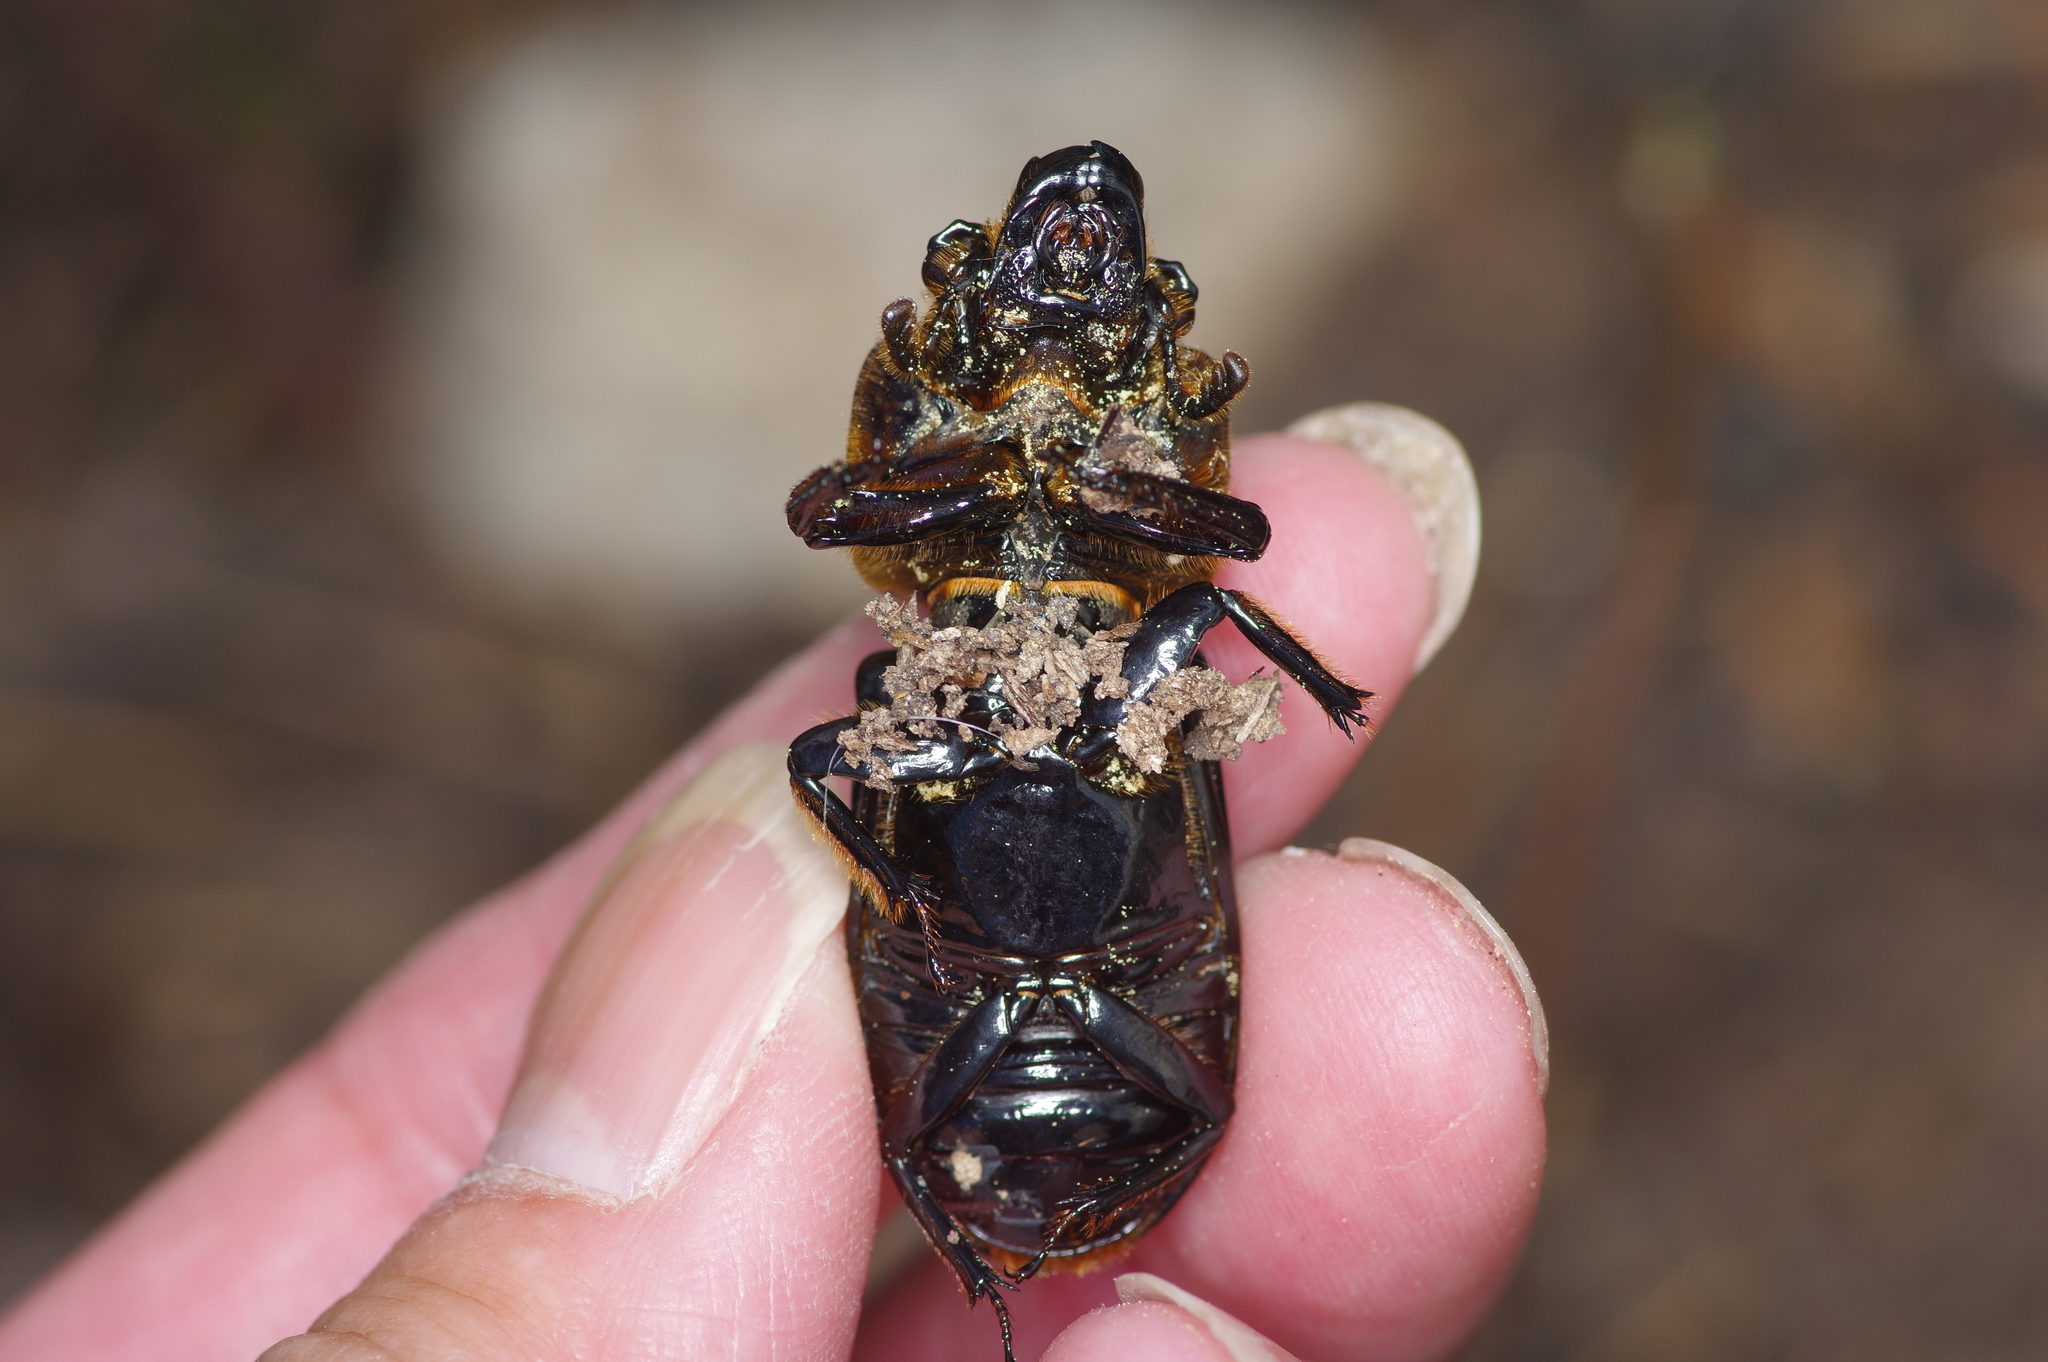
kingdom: Animalia
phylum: Arthropoda
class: Insecta
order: Coleoptera
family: Passalidae
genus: Odontotaenius
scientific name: Odontotaenius disjunctus
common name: Patent leather beetle
